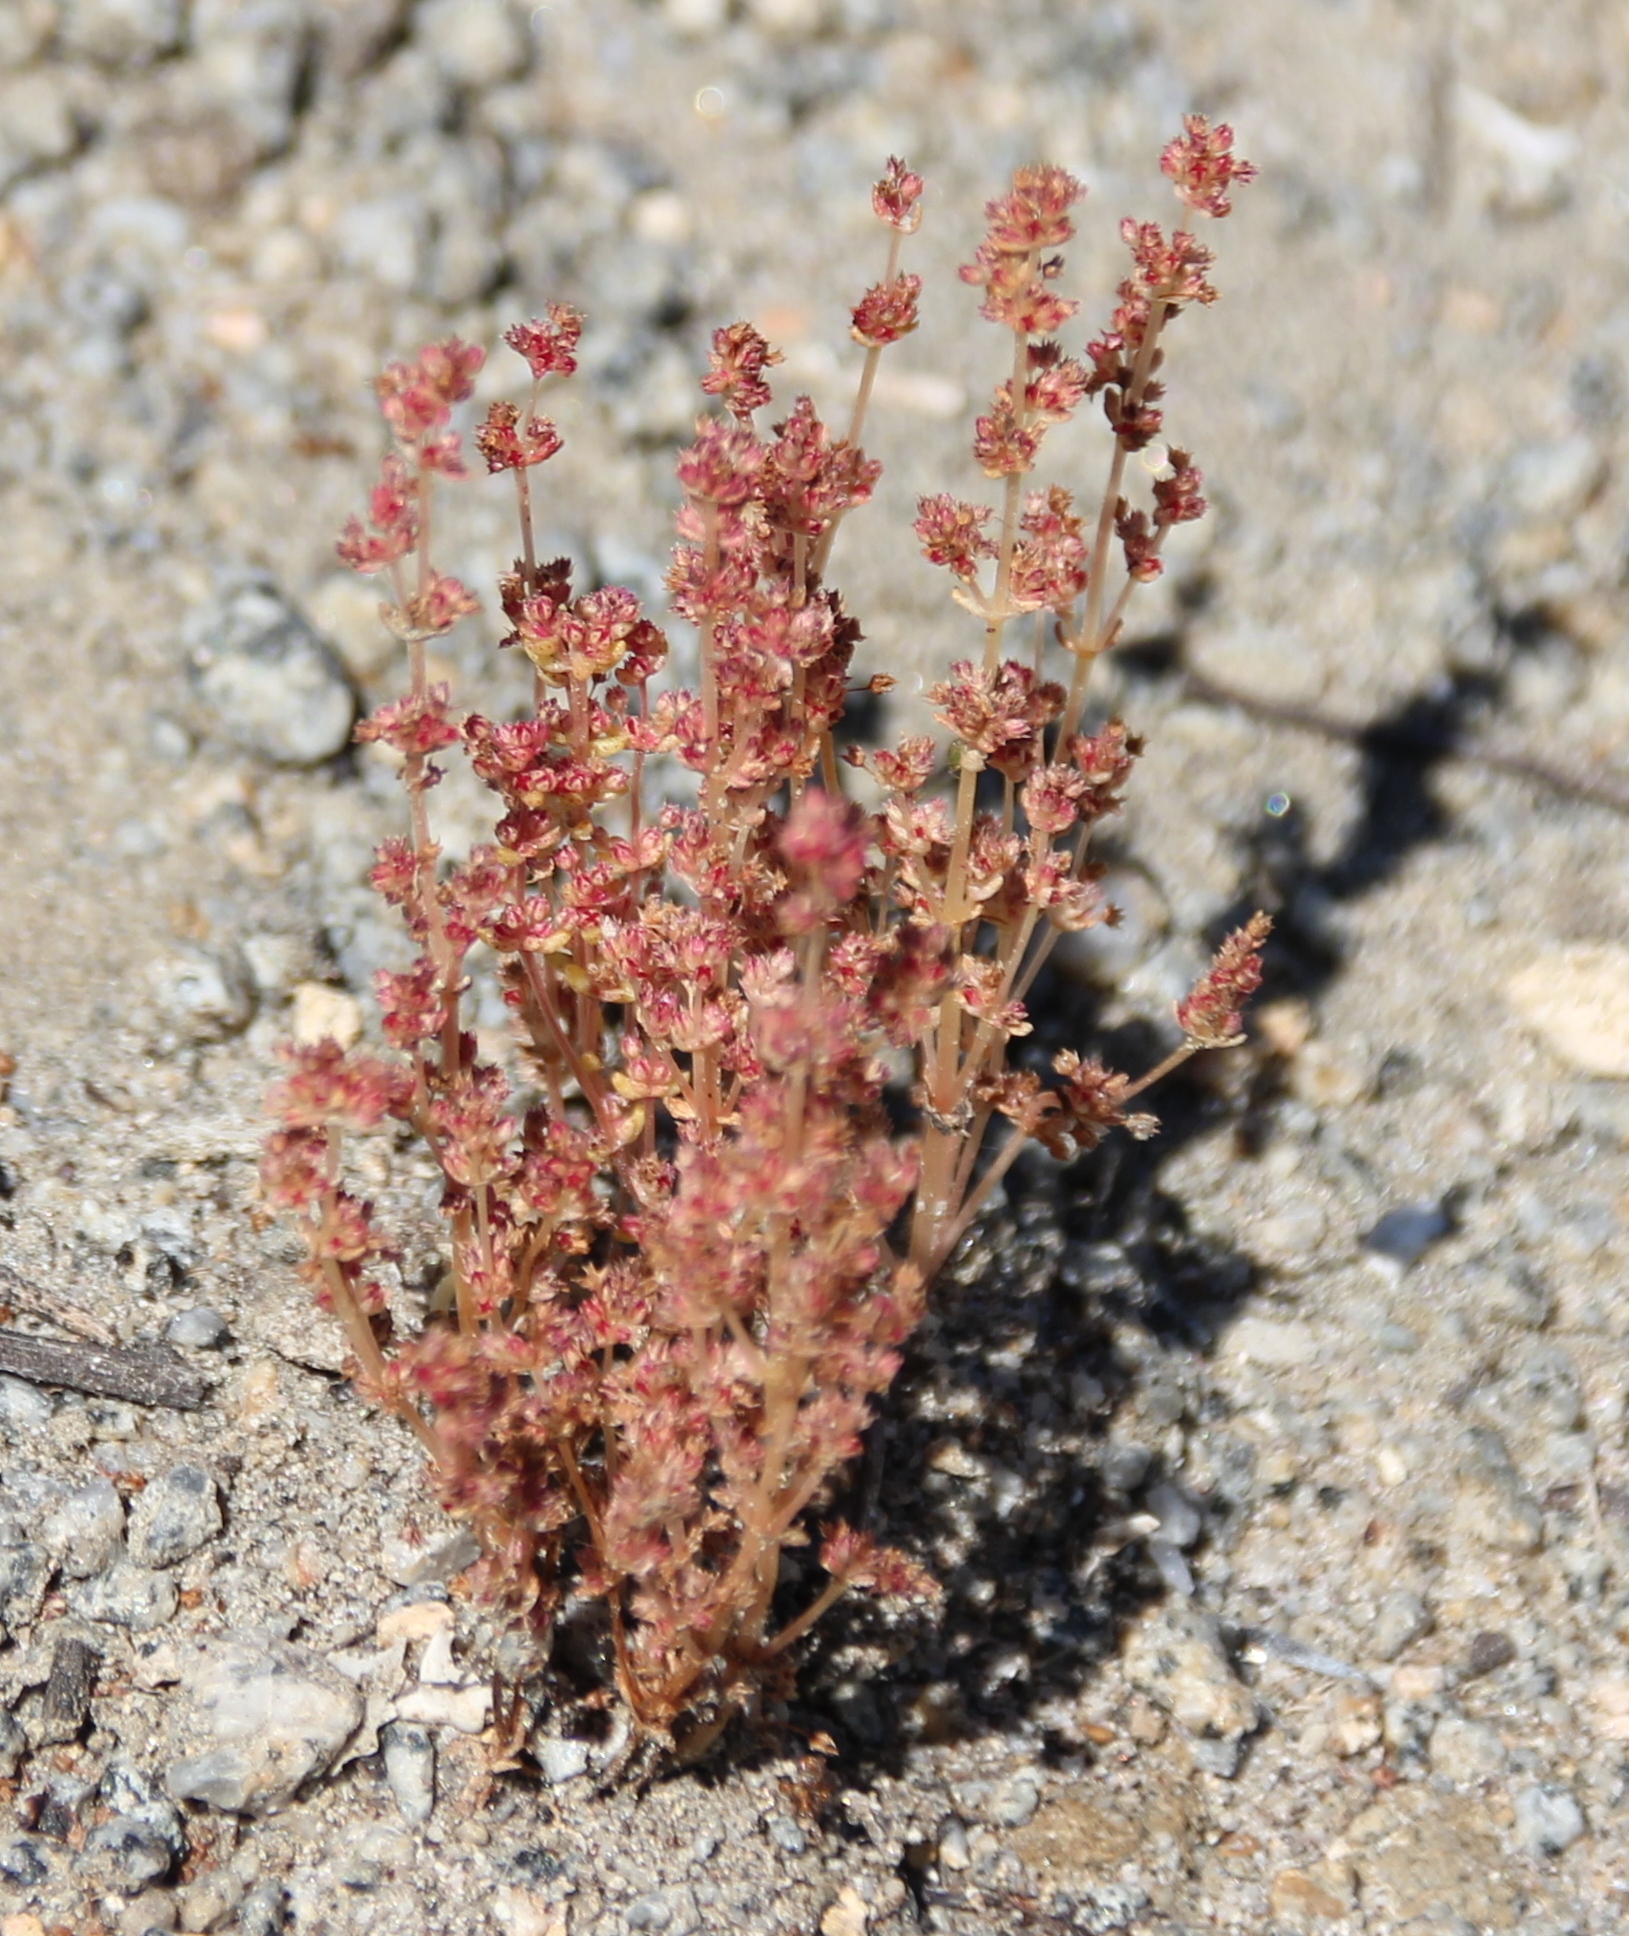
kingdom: Plantae
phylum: Tracheophyta
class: Magnoliopsida
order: Saxifragales
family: Crassulaceae
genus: Crassula
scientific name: Crassula connata
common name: Erect pygmyweed
